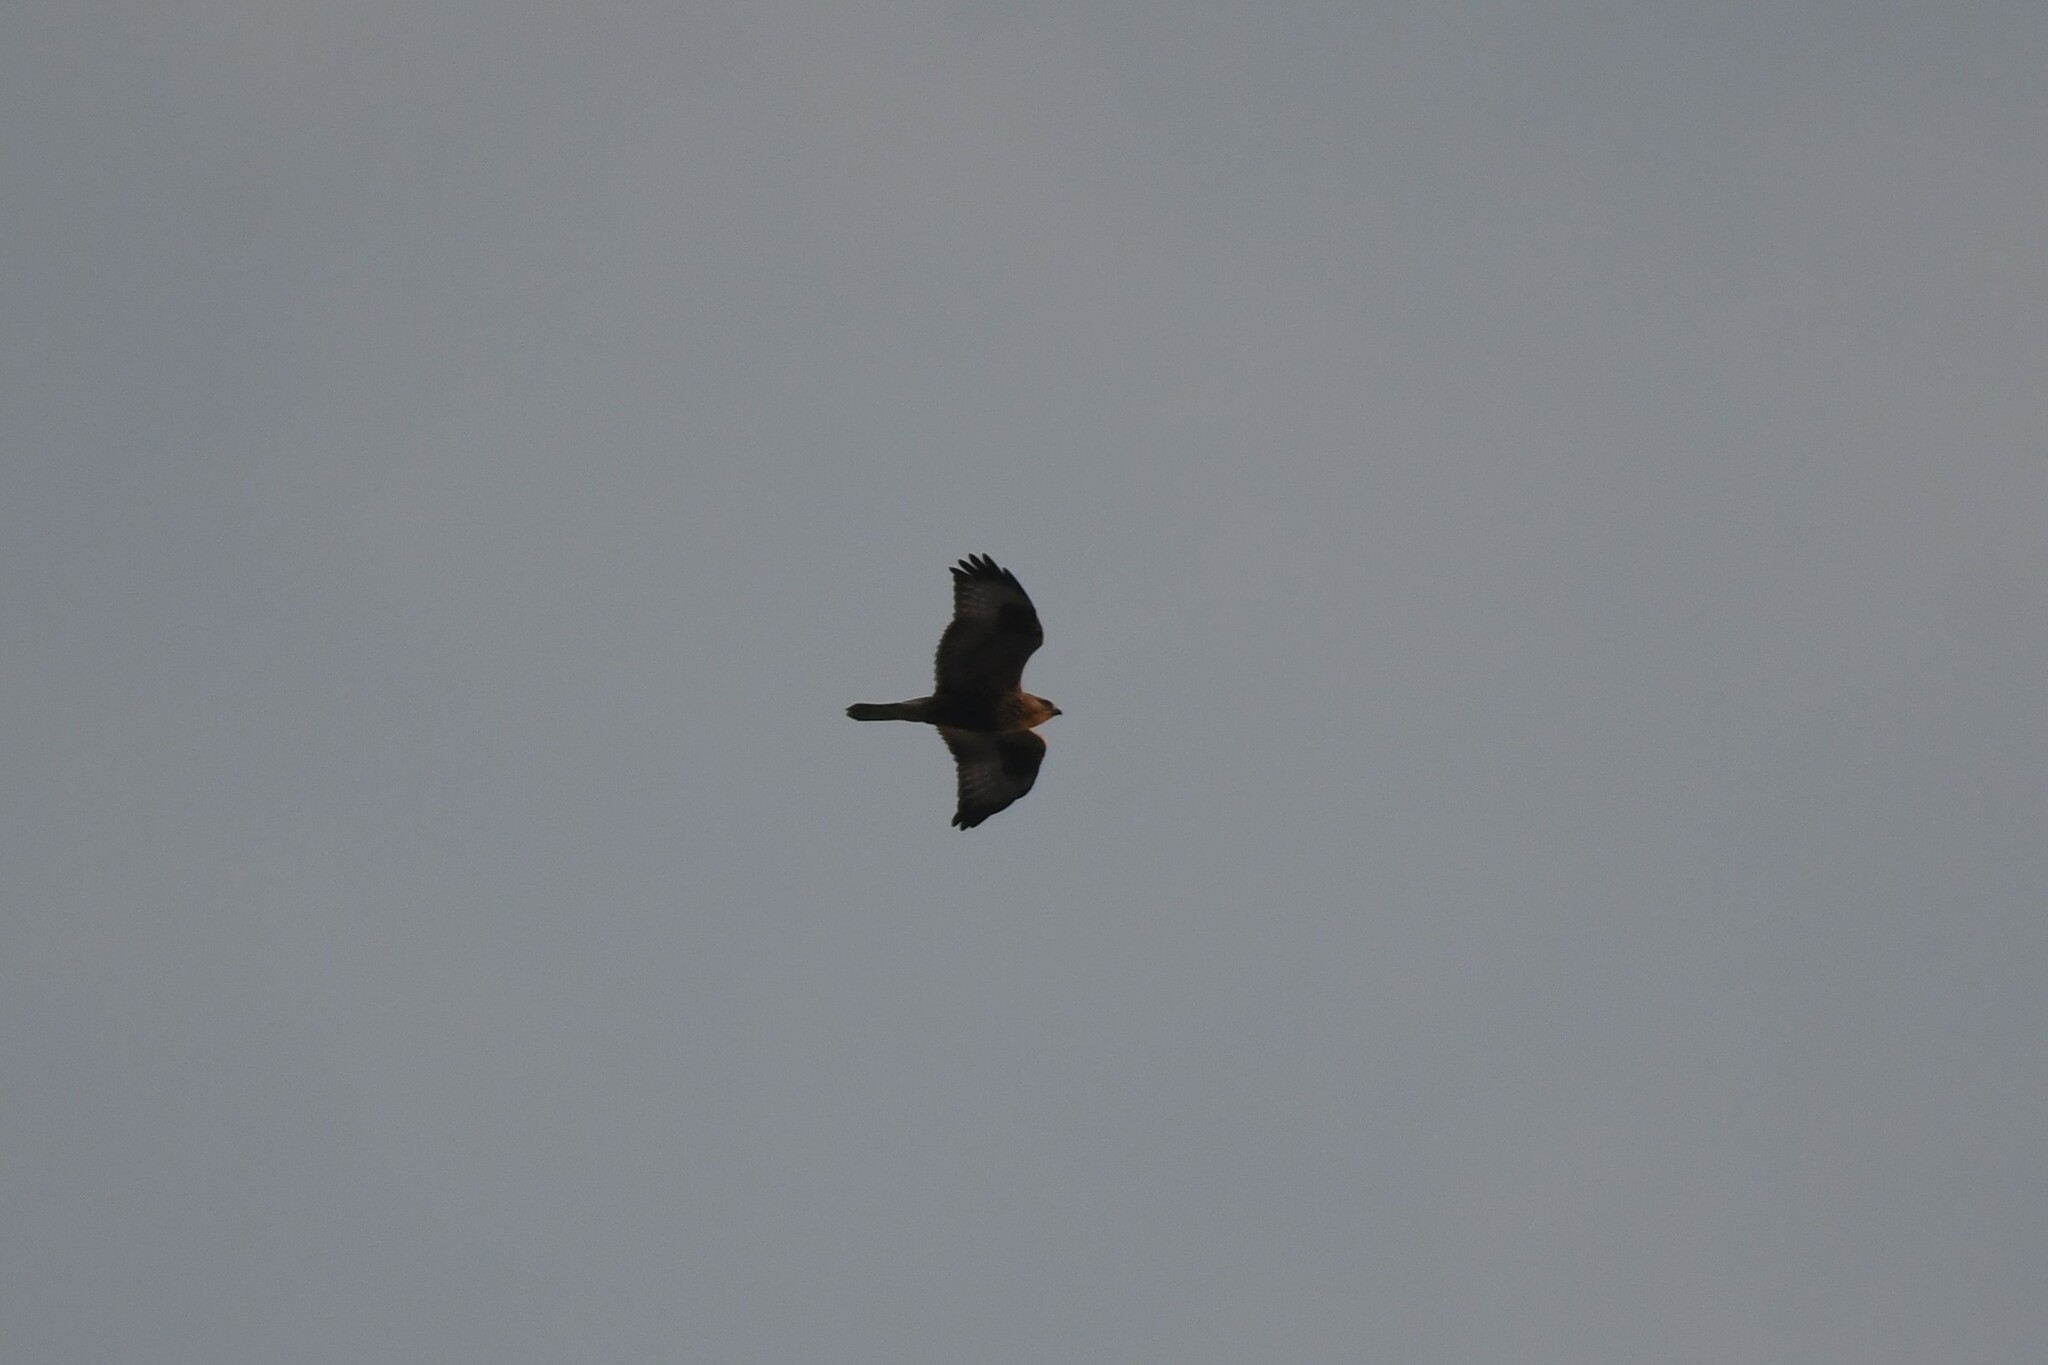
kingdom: Animalia
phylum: Chordata
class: Aves
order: Accipitriformes
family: Accipitridae
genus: Buteo
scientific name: Buteo lagopus
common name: Rough-legged buzzard
